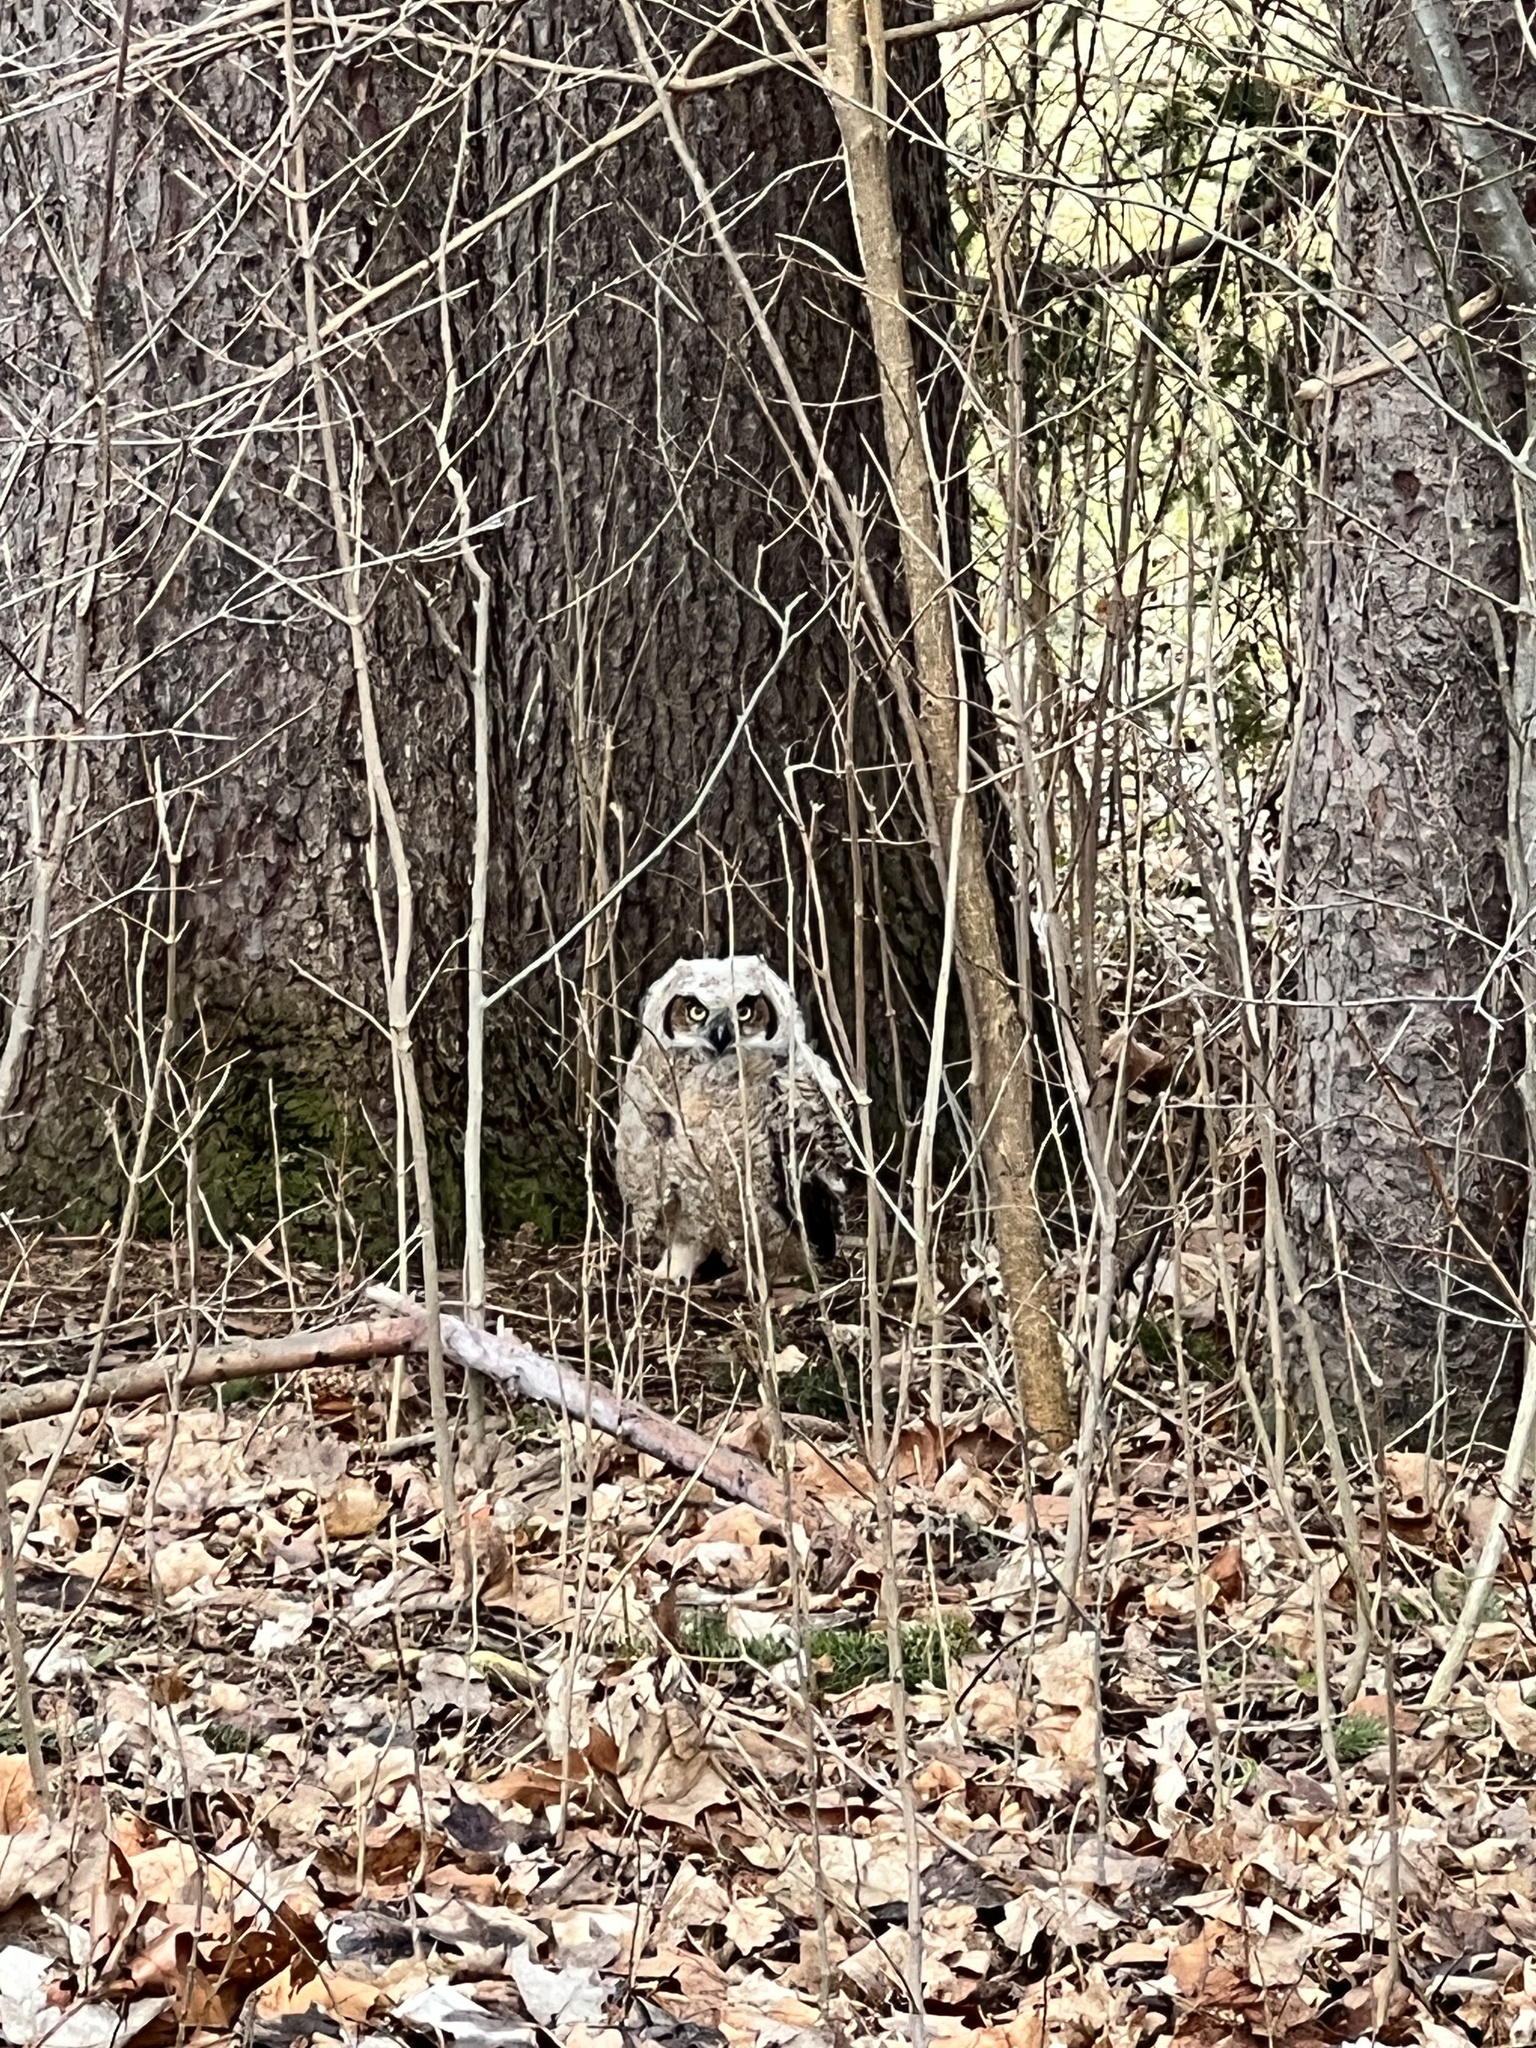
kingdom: Animalia
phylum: Chordata
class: Aves
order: Strigiformes
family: Strigidae
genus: Bubo
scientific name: Bubo virginianus
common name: Great horned owl
